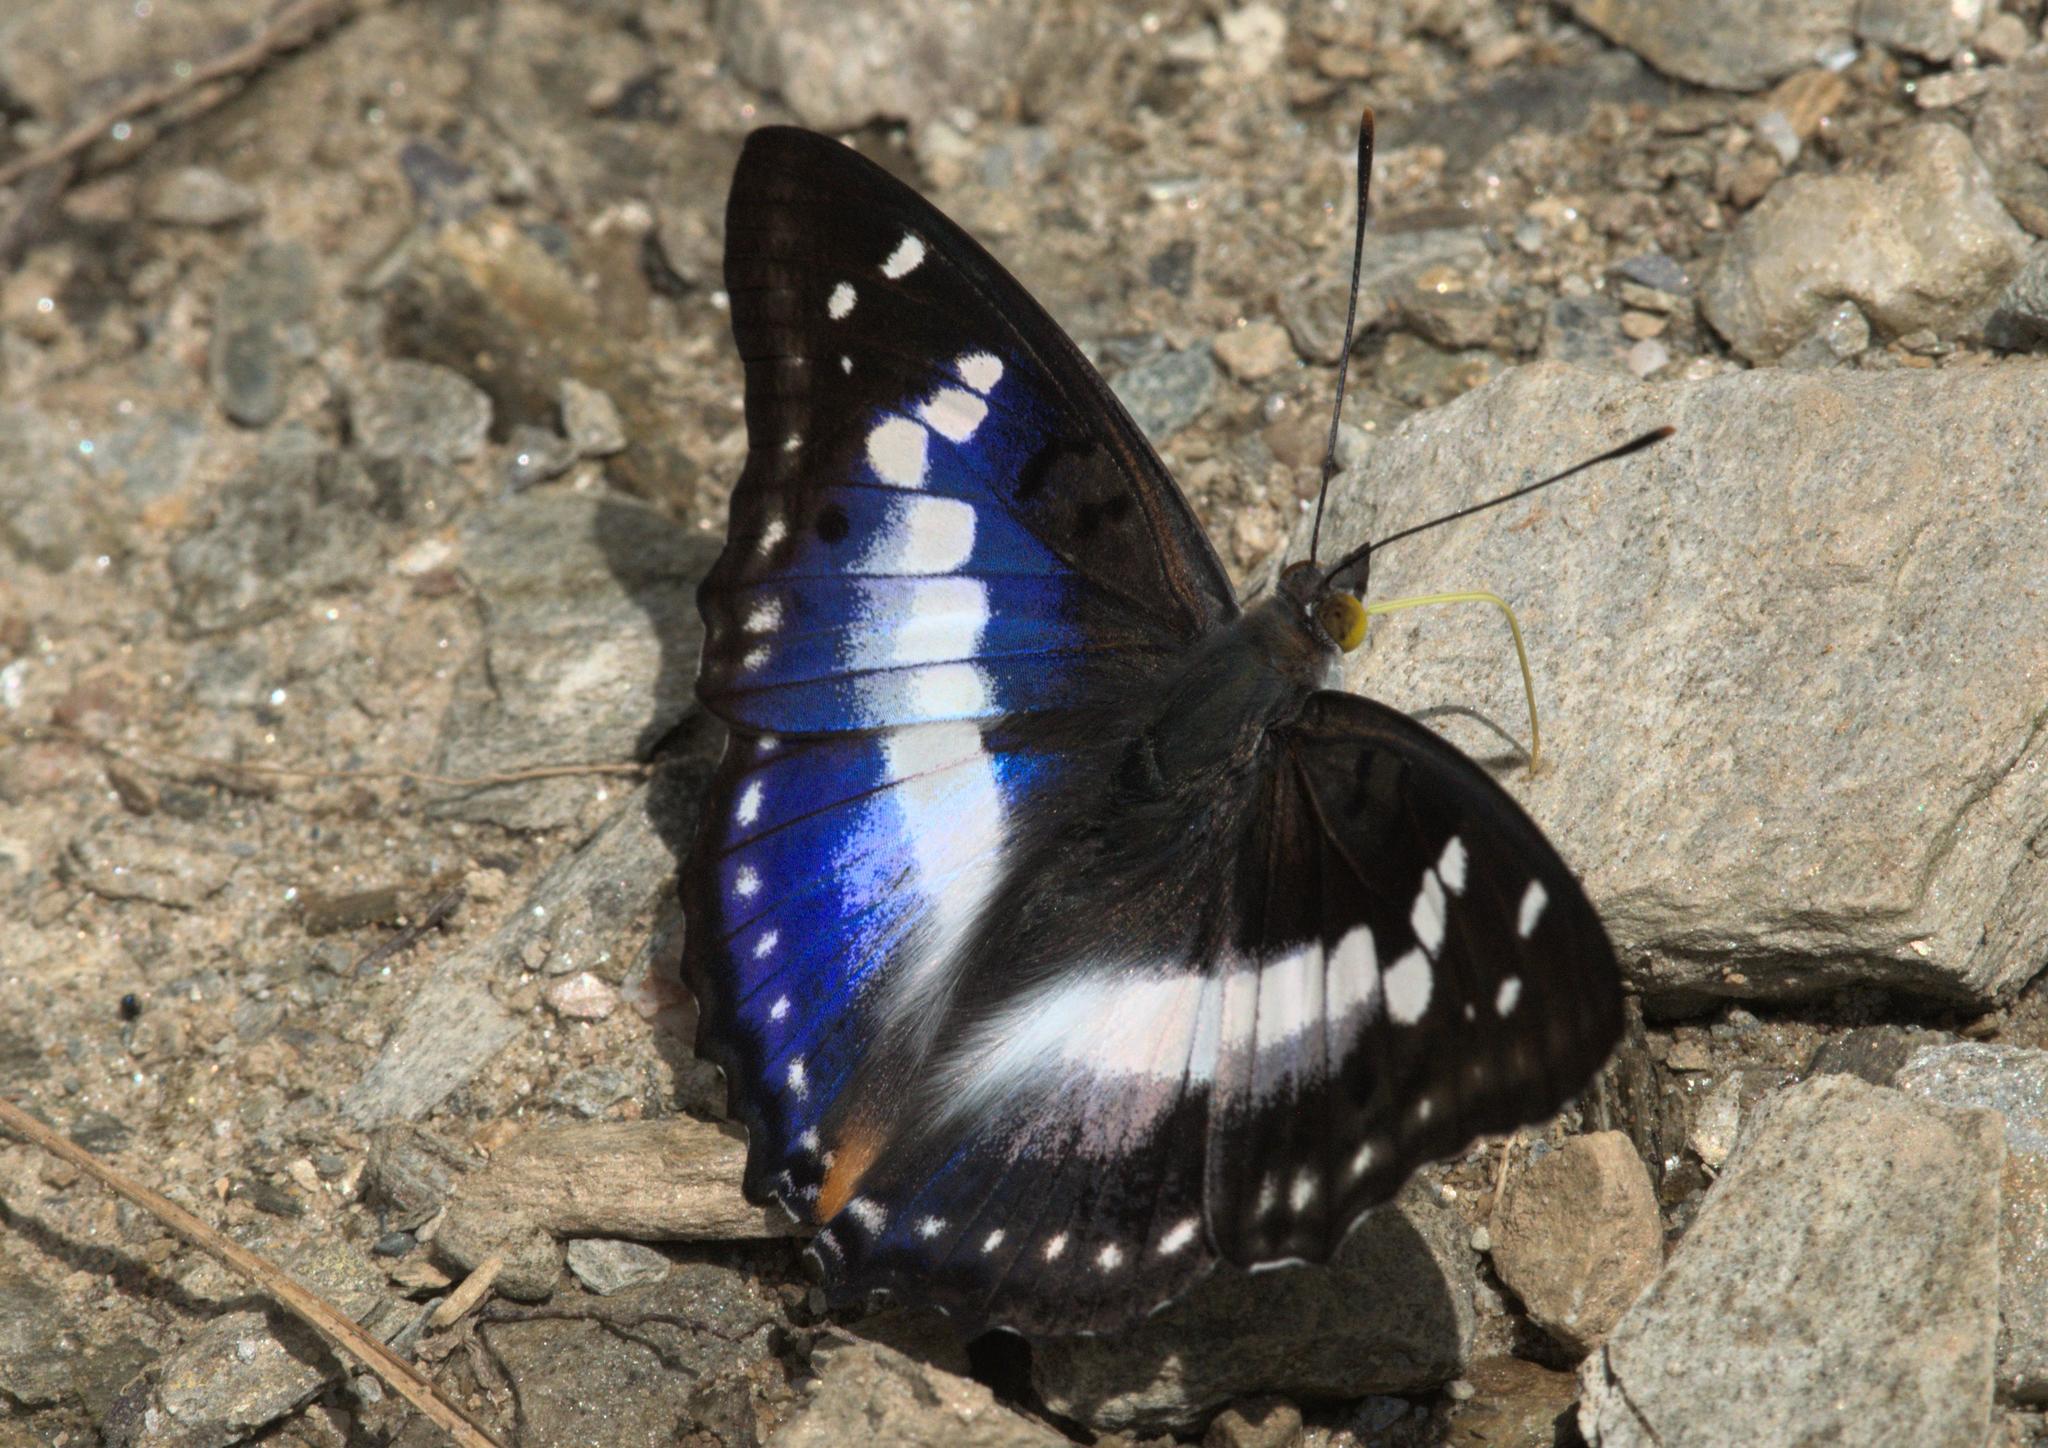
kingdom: Animalia
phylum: Arthropoda
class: Insecta
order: Lepidoptera
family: Nymphalidae
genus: Apatura
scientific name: Apatura Mimathyma ambica
